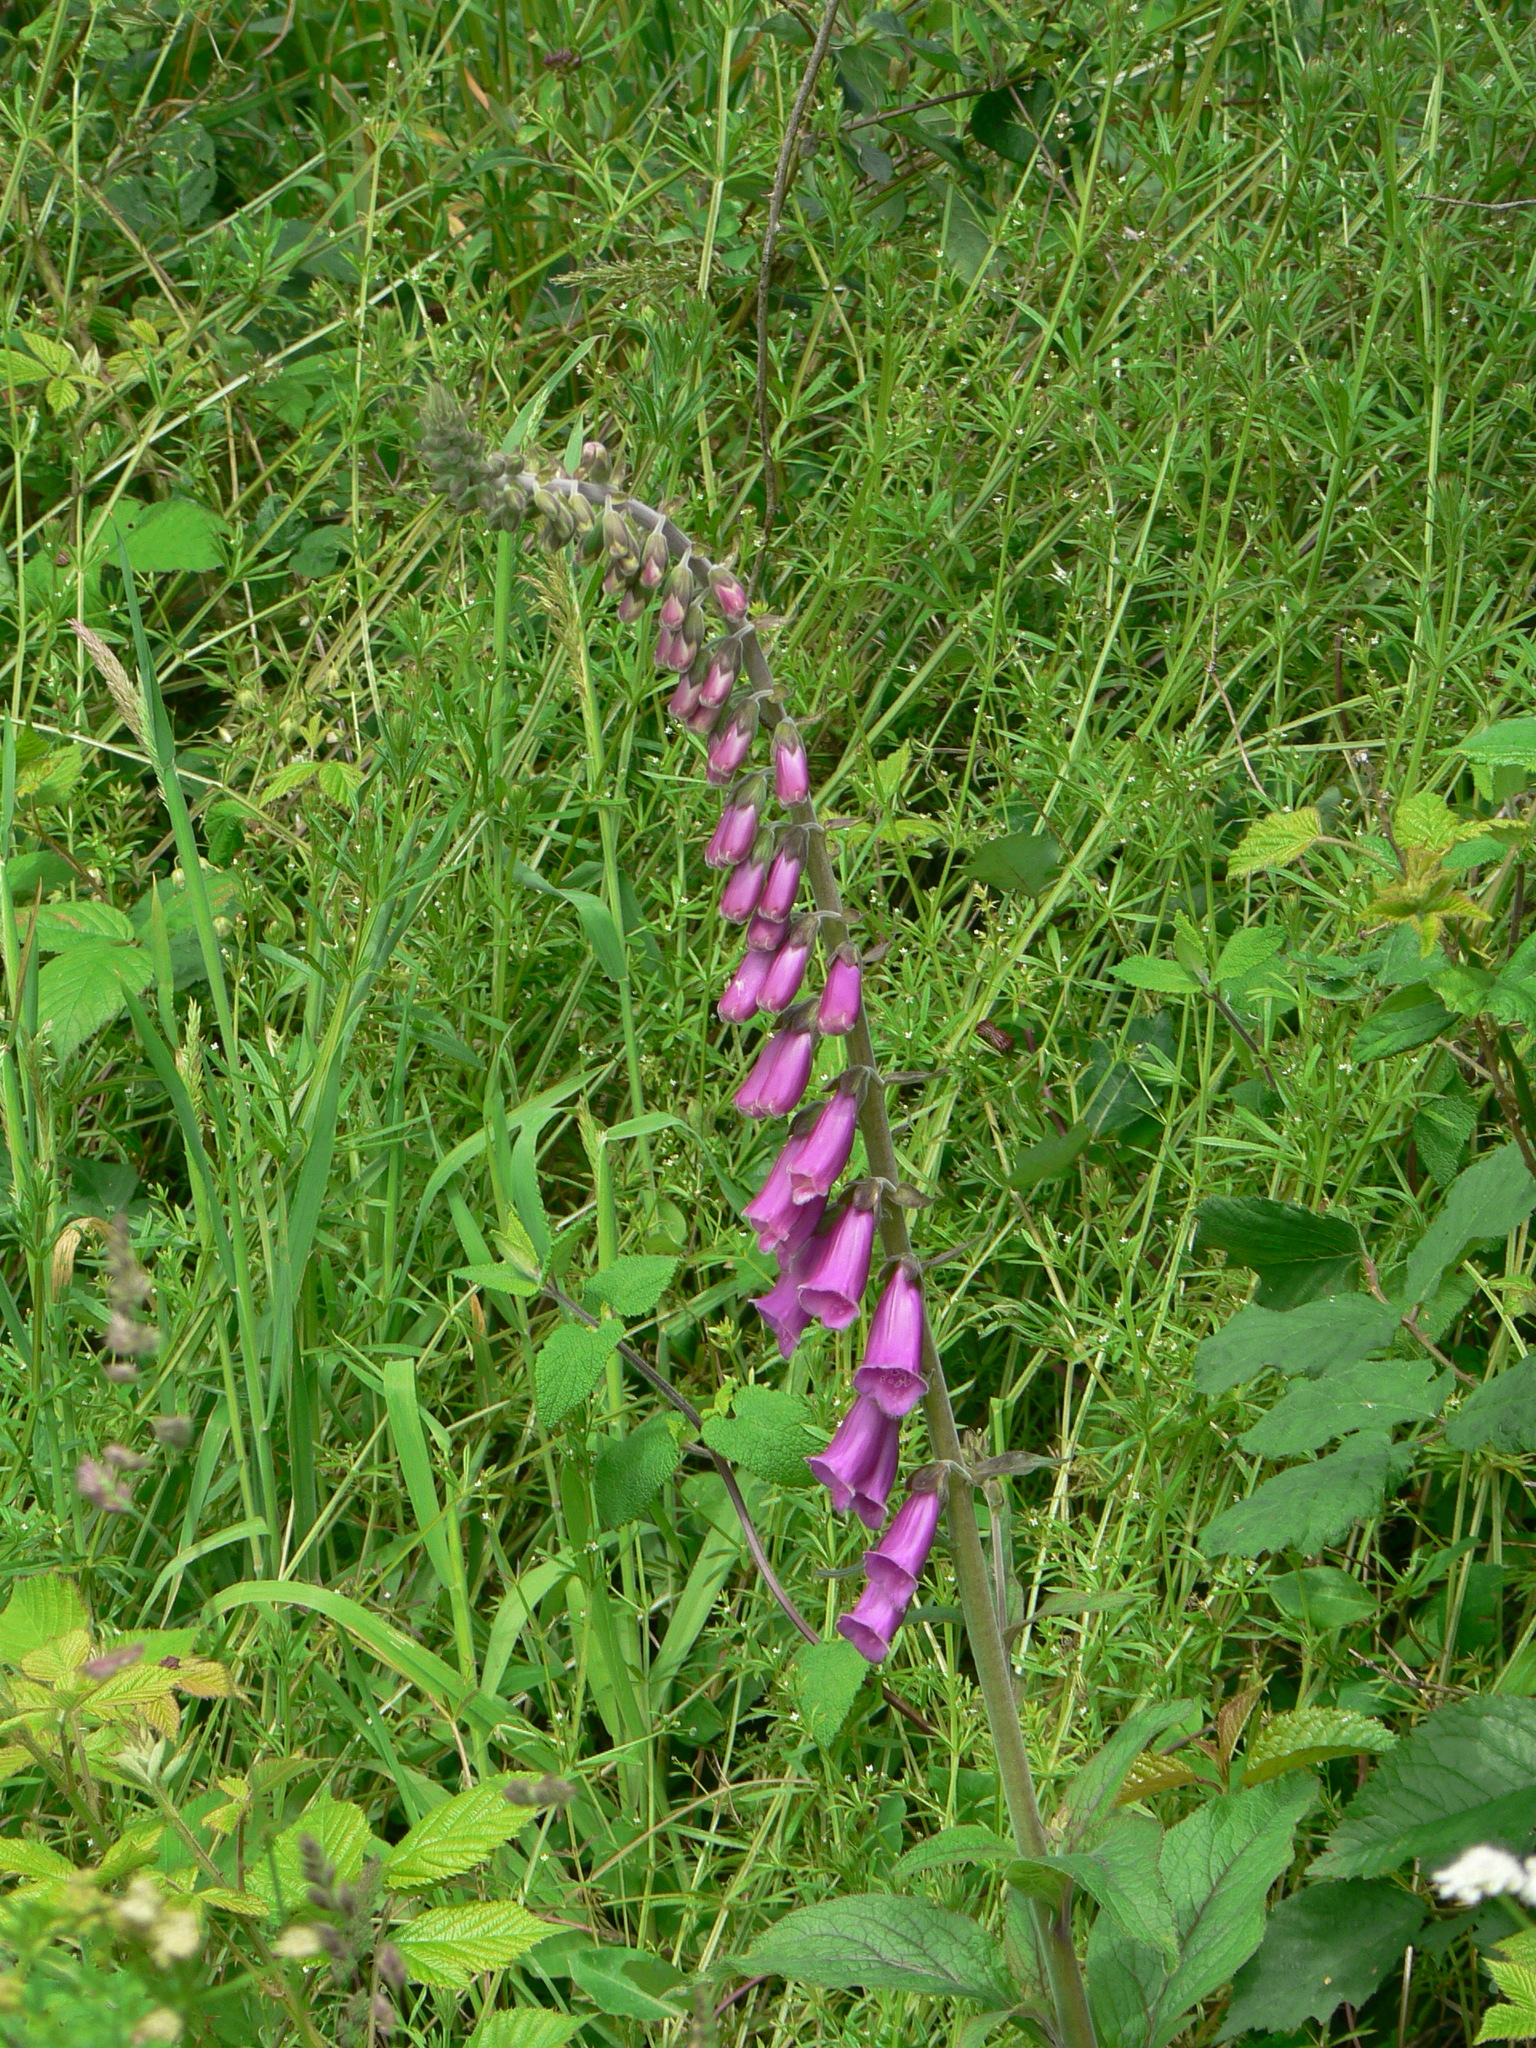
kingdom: Plantae
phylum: Tracheophyta
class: Magnoliopsida
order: Lamiales
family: Plantaginaceae
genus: Digitalis
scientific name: Digitalis purpurea
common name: Foxglove
